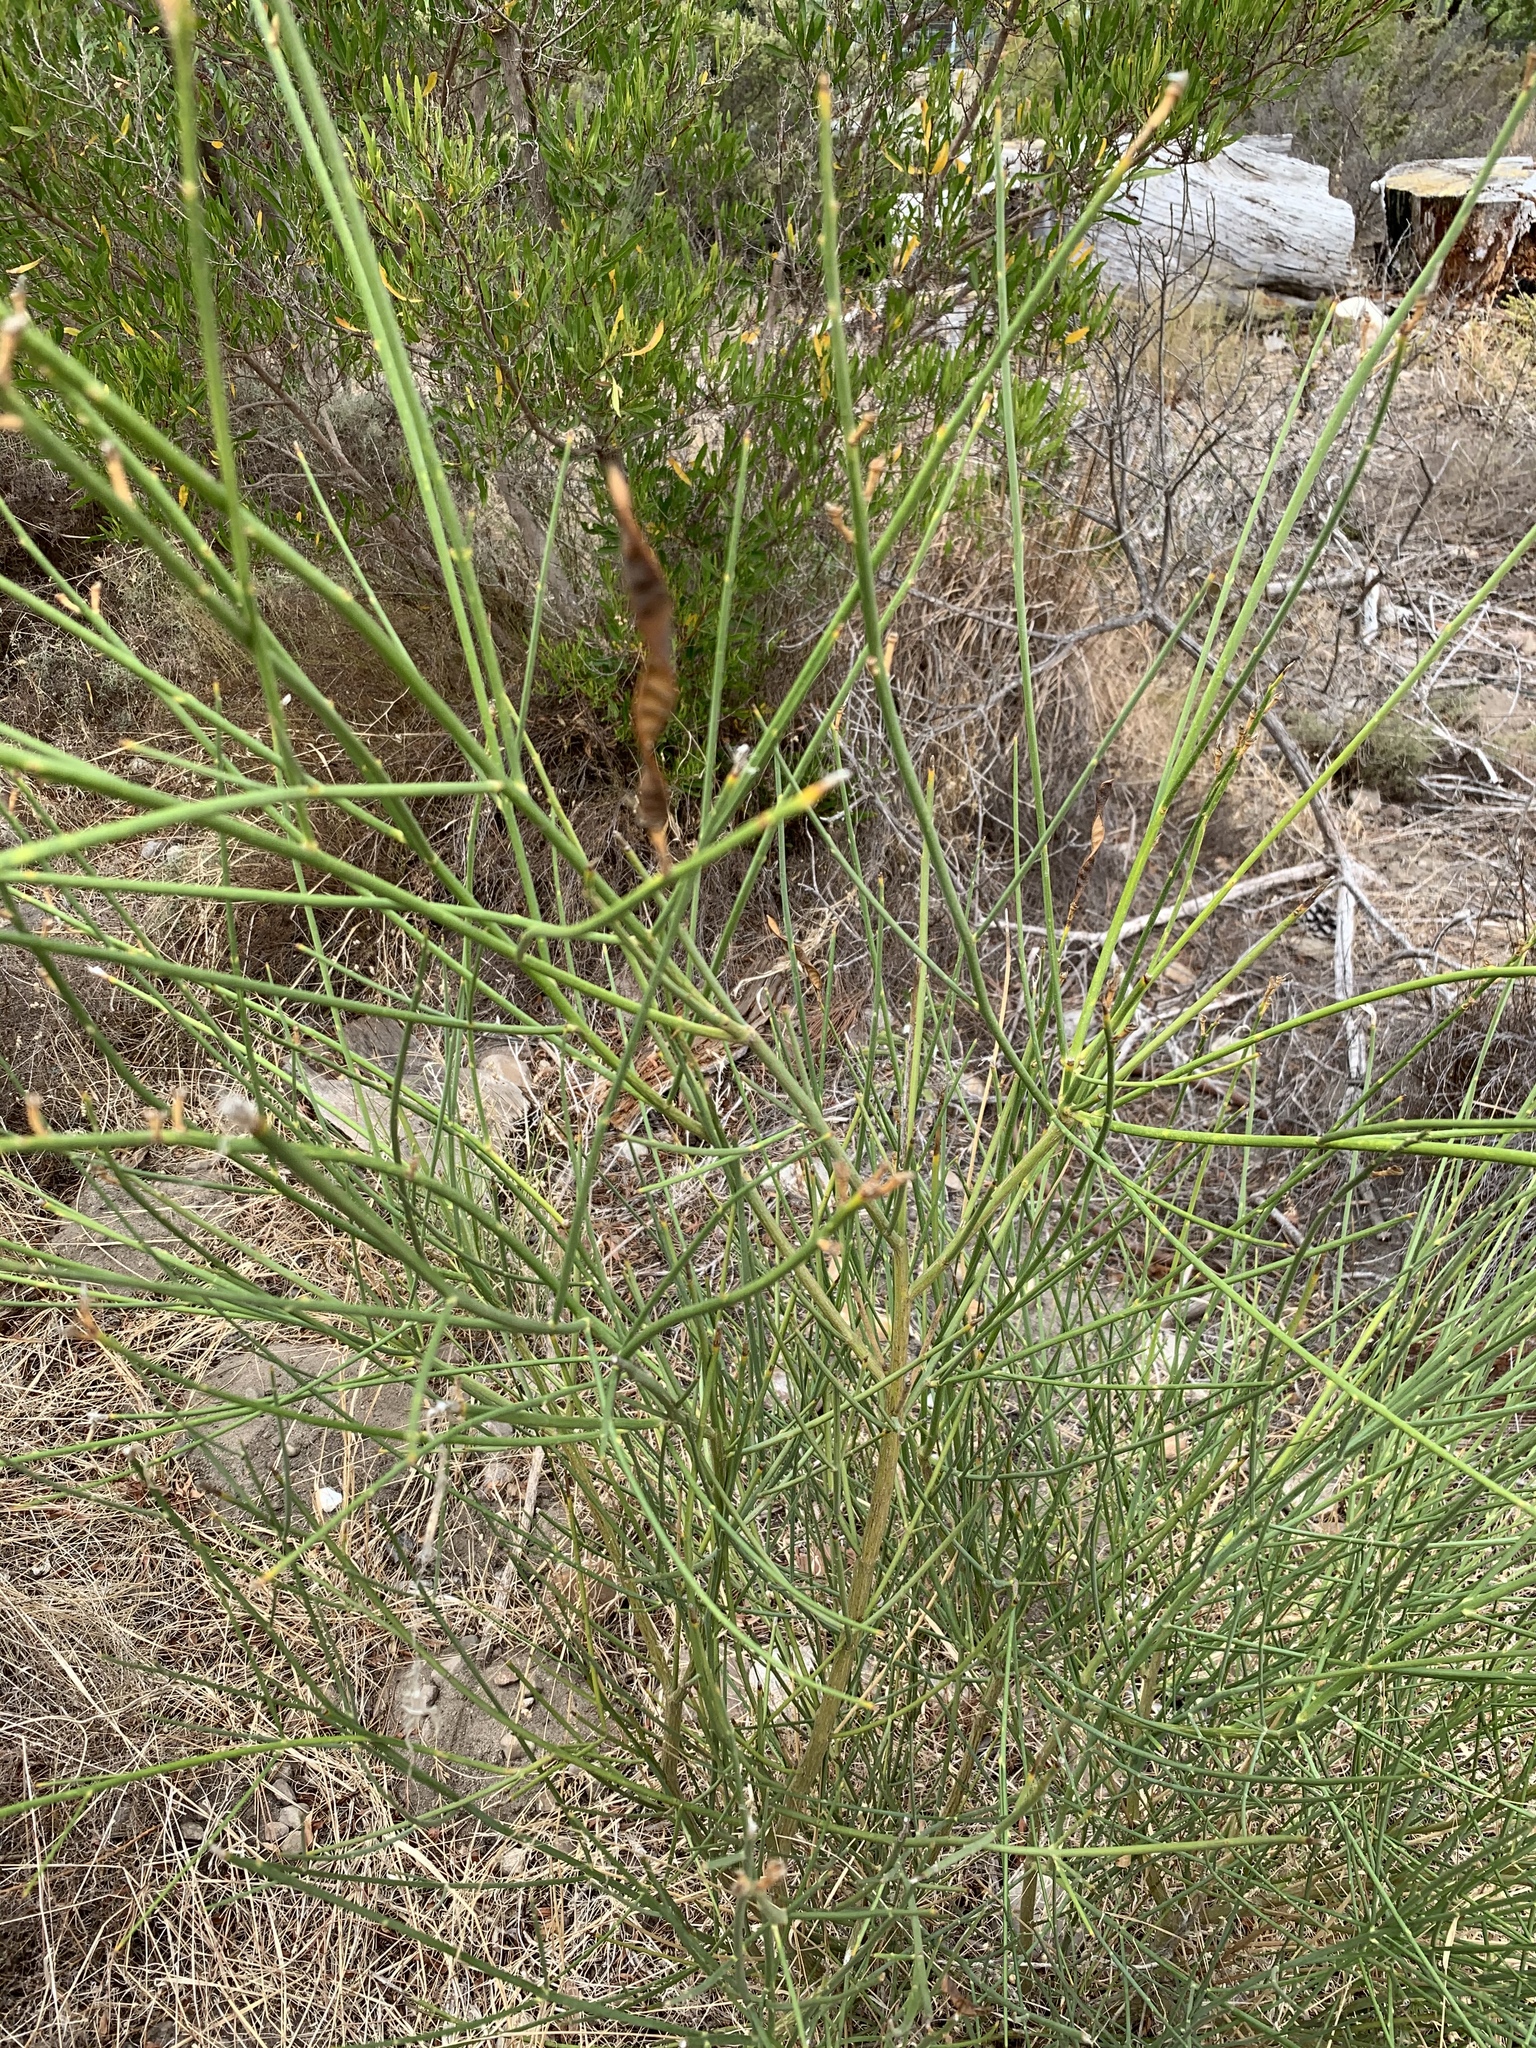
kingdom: Plantae
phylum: Tracheophyta
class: Magnoliopsida
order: Fabales
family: Fabaceae
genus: Spartium
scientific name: Spartium junceum
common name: Spanish broom
